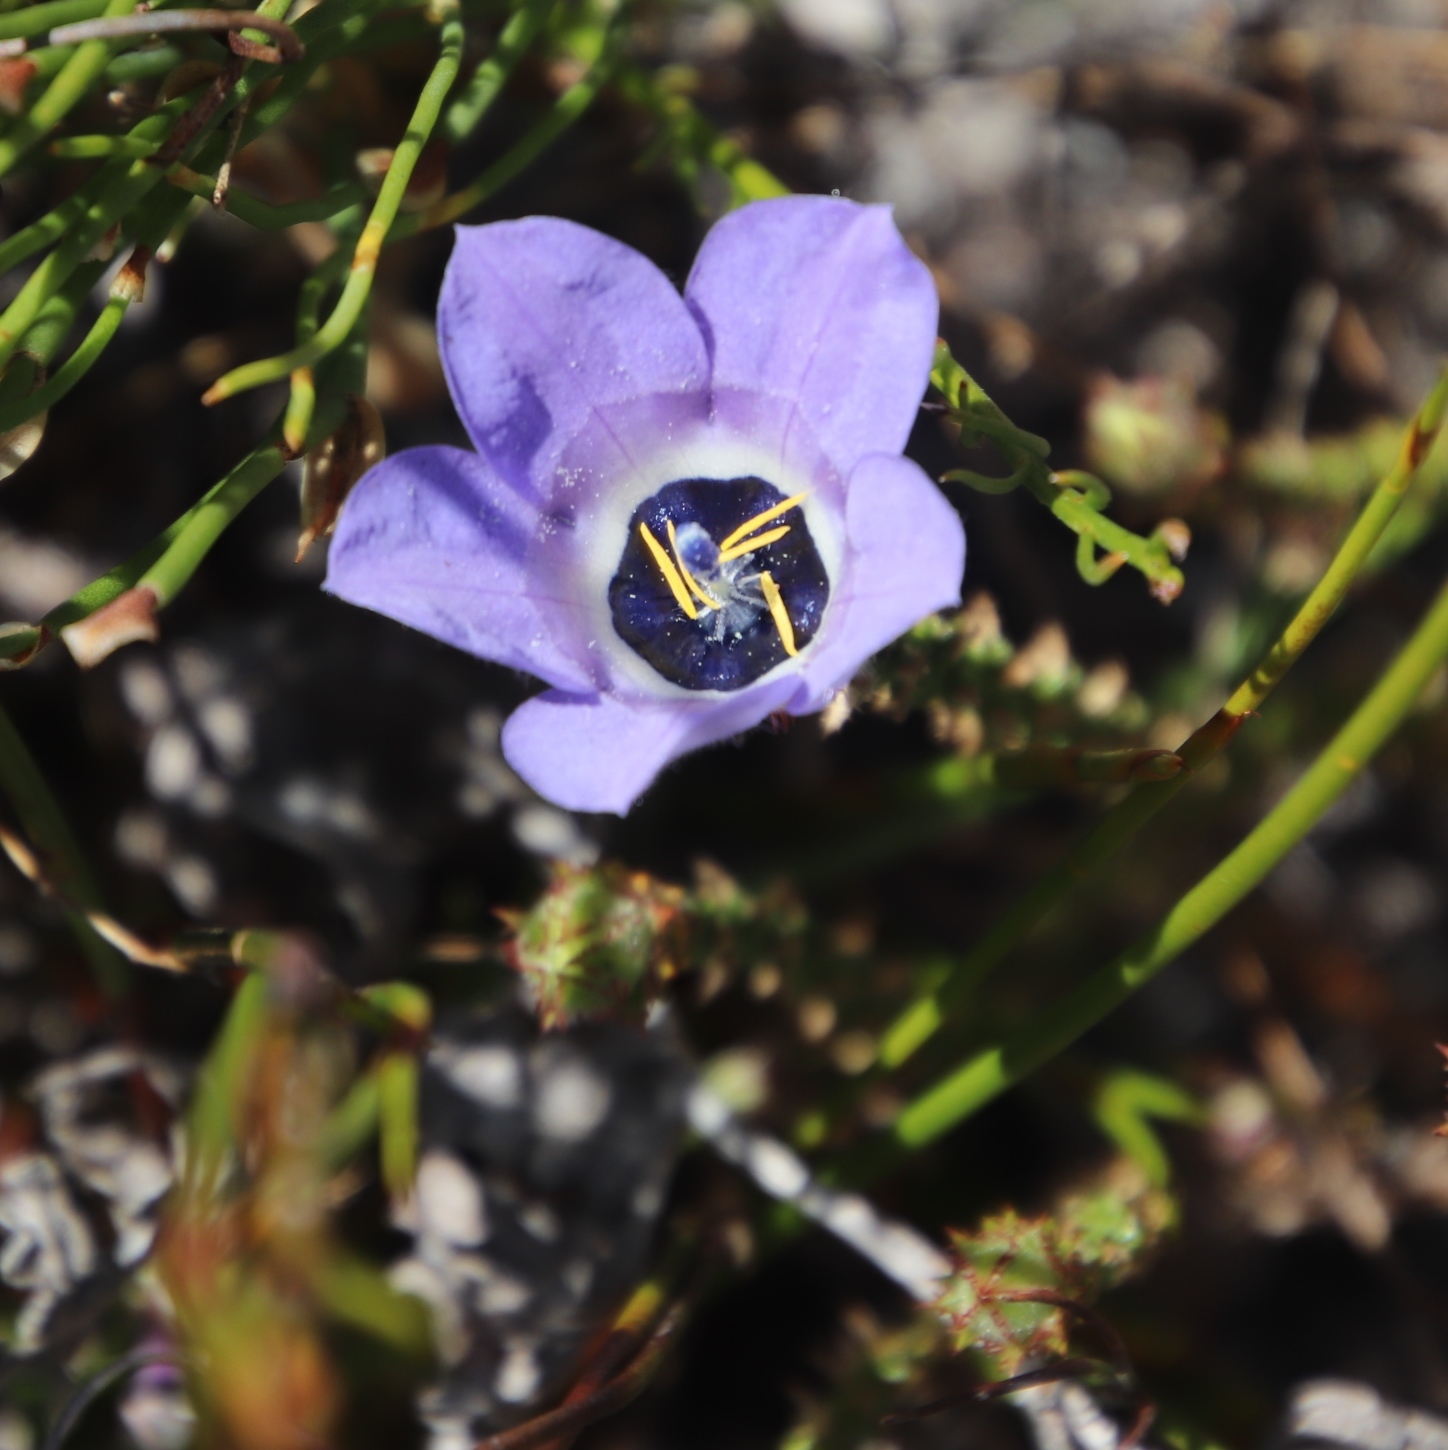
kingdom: Plantae
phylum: Tracheophyta
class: Magnoliopsida
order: Asterales
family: Campanulaceae
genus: Roella
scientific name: Roella triflora
